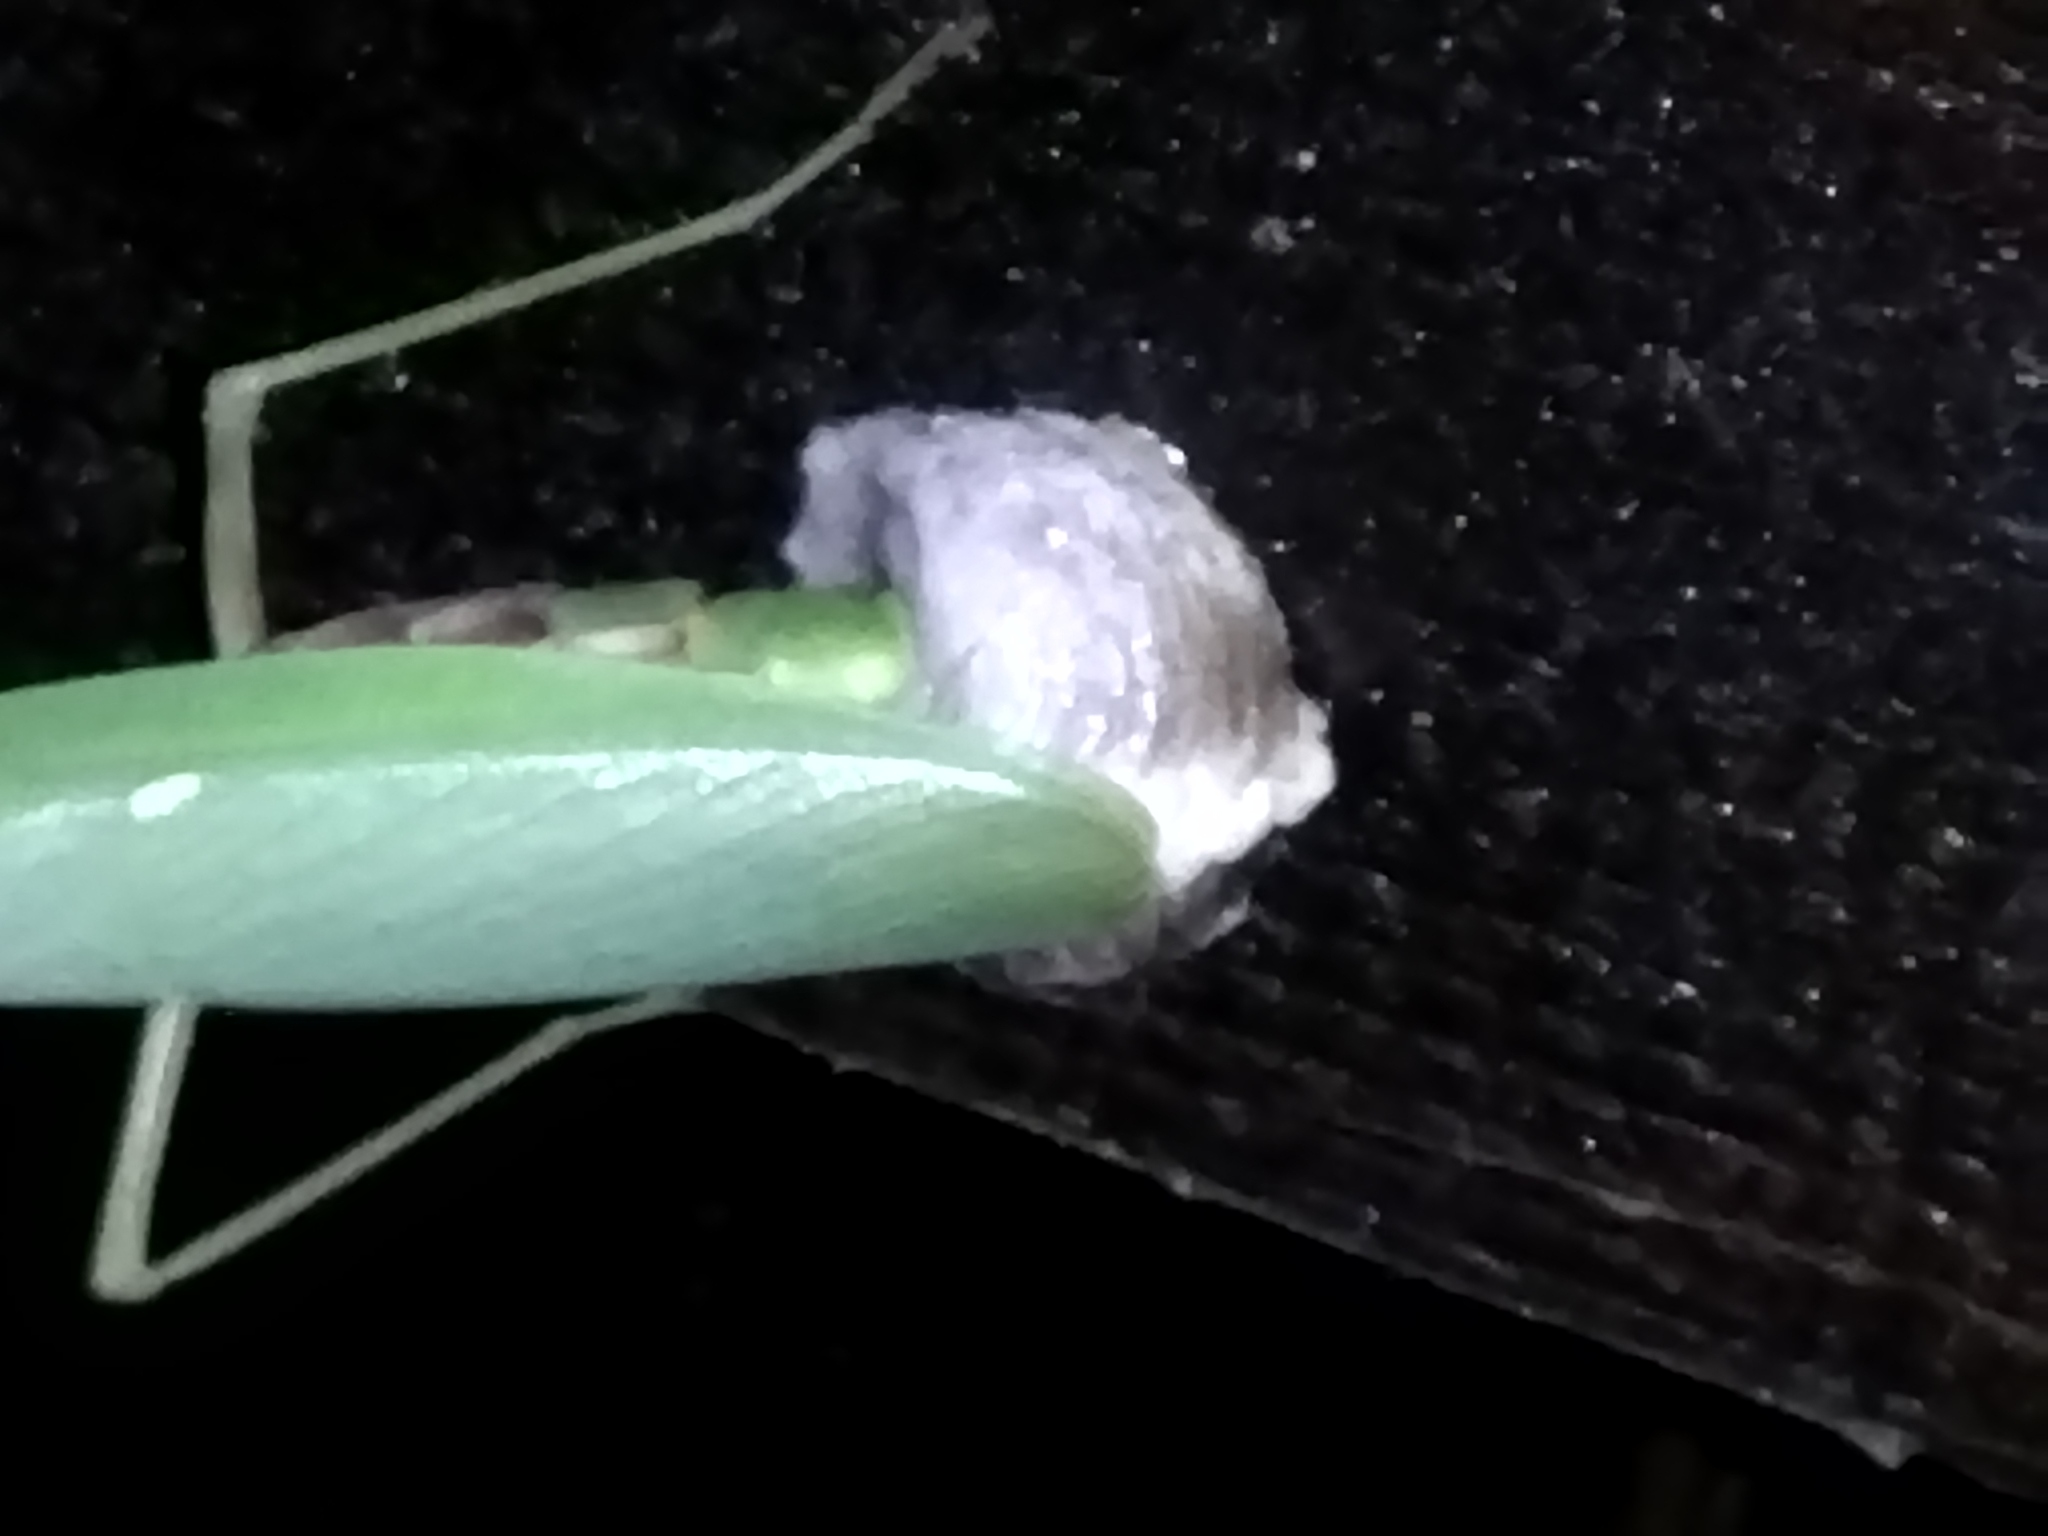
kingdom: Animalia
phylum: Arthropoda
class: Insecta
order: Mantodea
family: Mantidae
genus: Hierodula
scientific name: Hierodula transcaucasica
